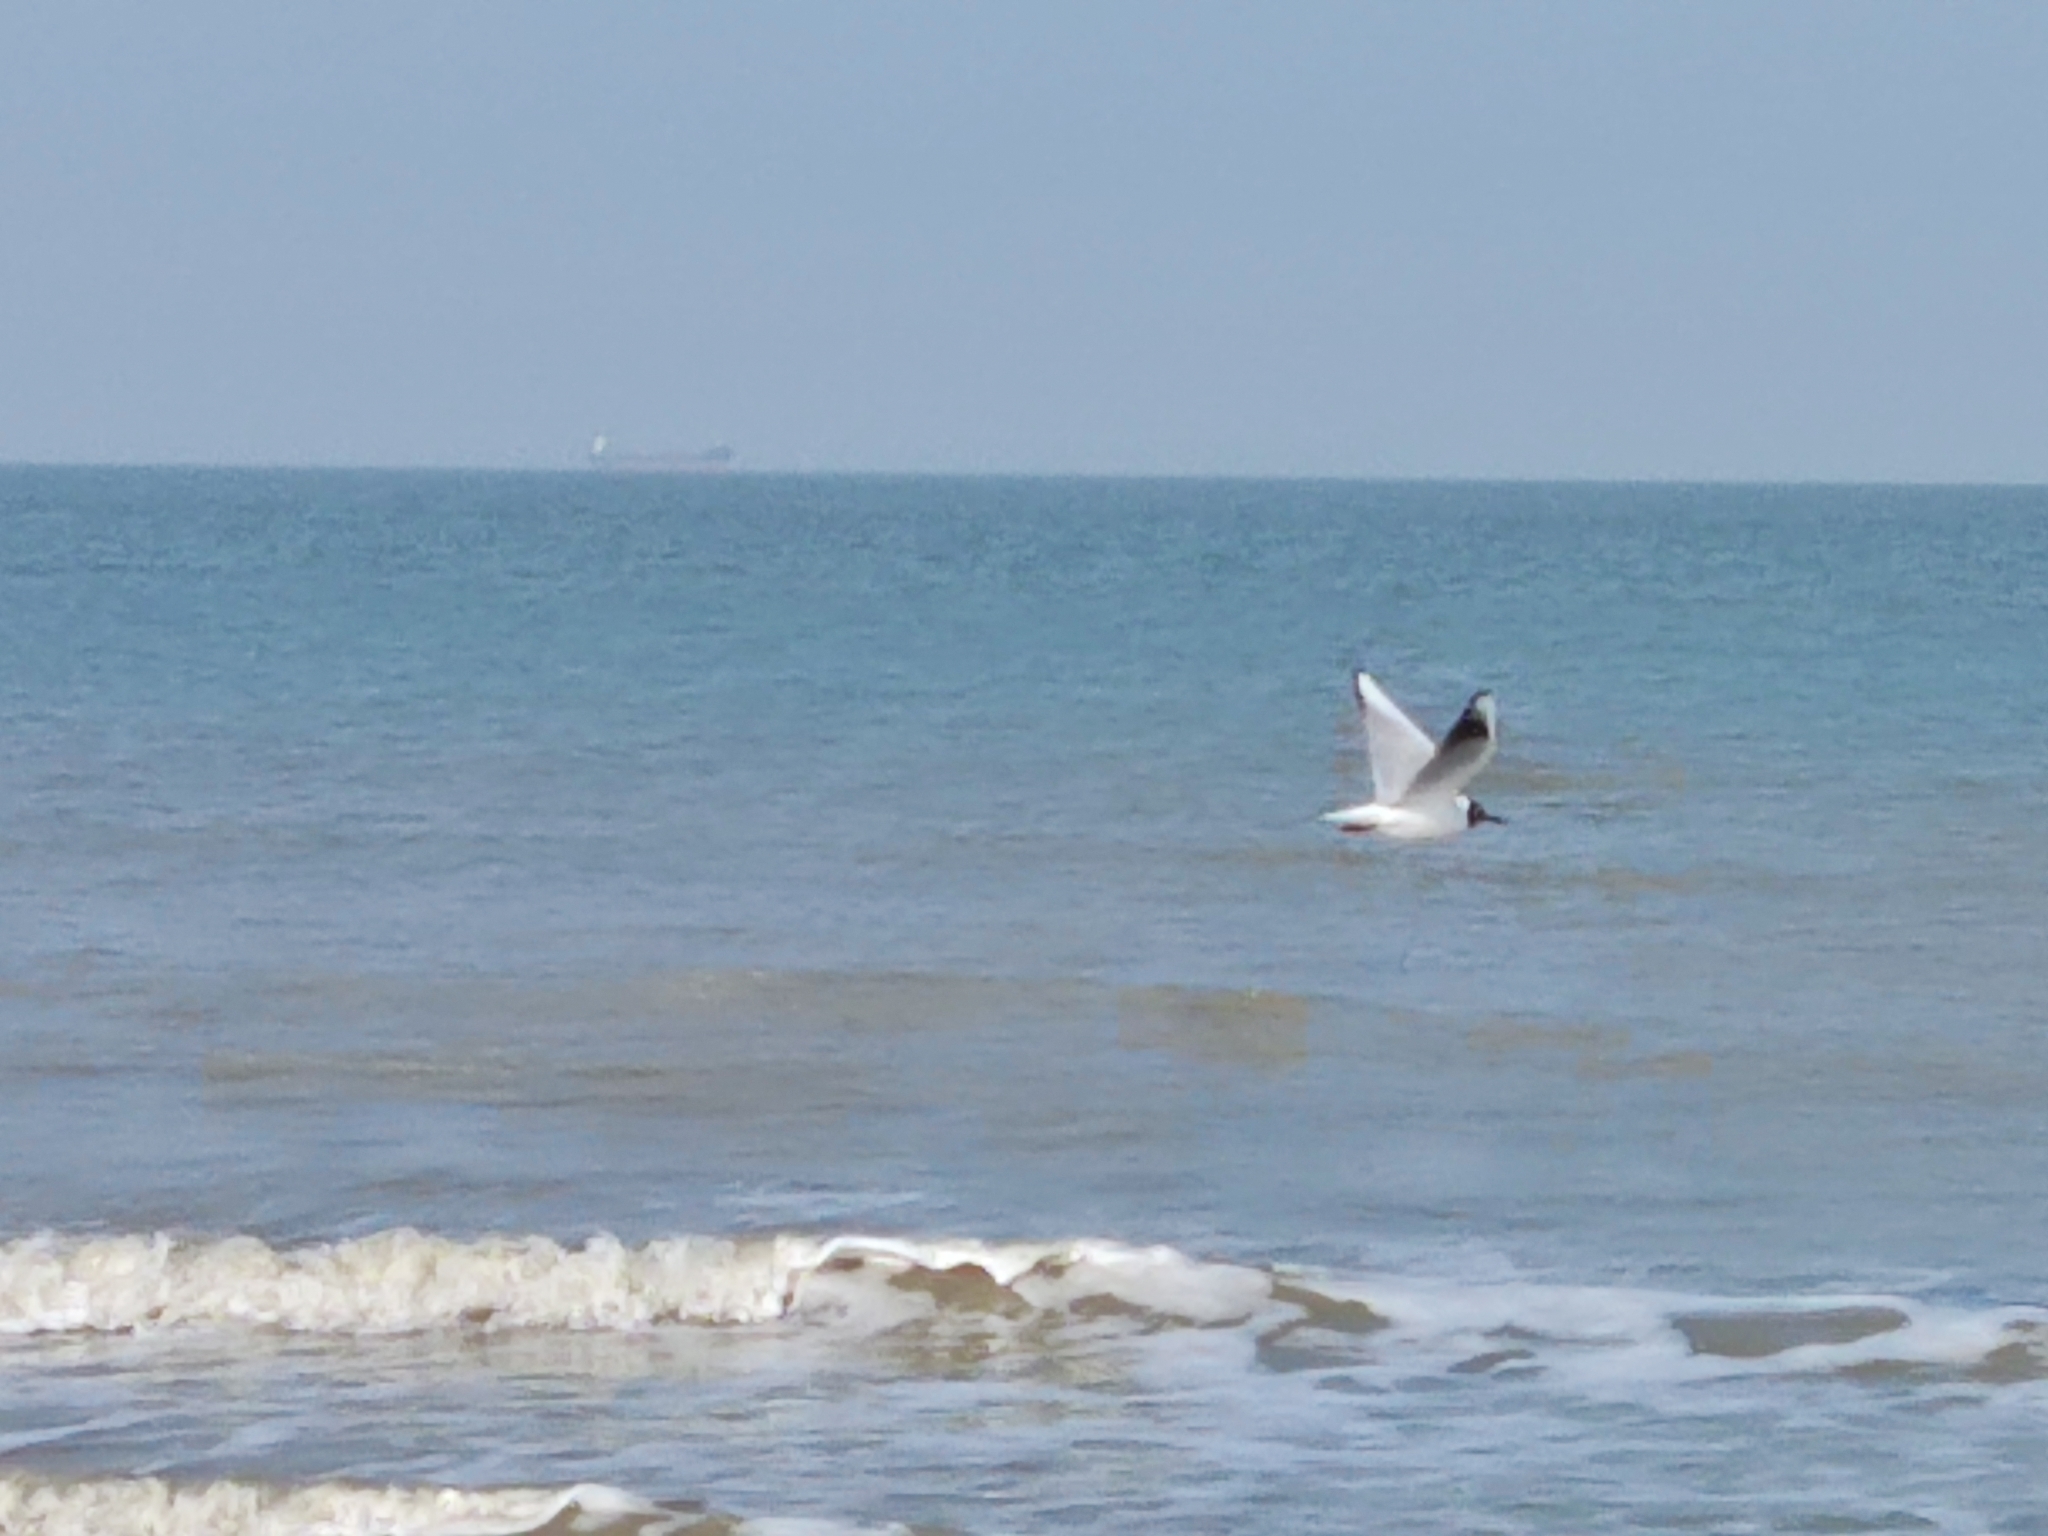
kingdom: Animalia
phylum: Chordata
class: Aves
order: Charadriiformes
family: Laridae
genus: Chroicocephalus
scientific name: Chroicocephalus ridibundus
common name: Black-headed gull
